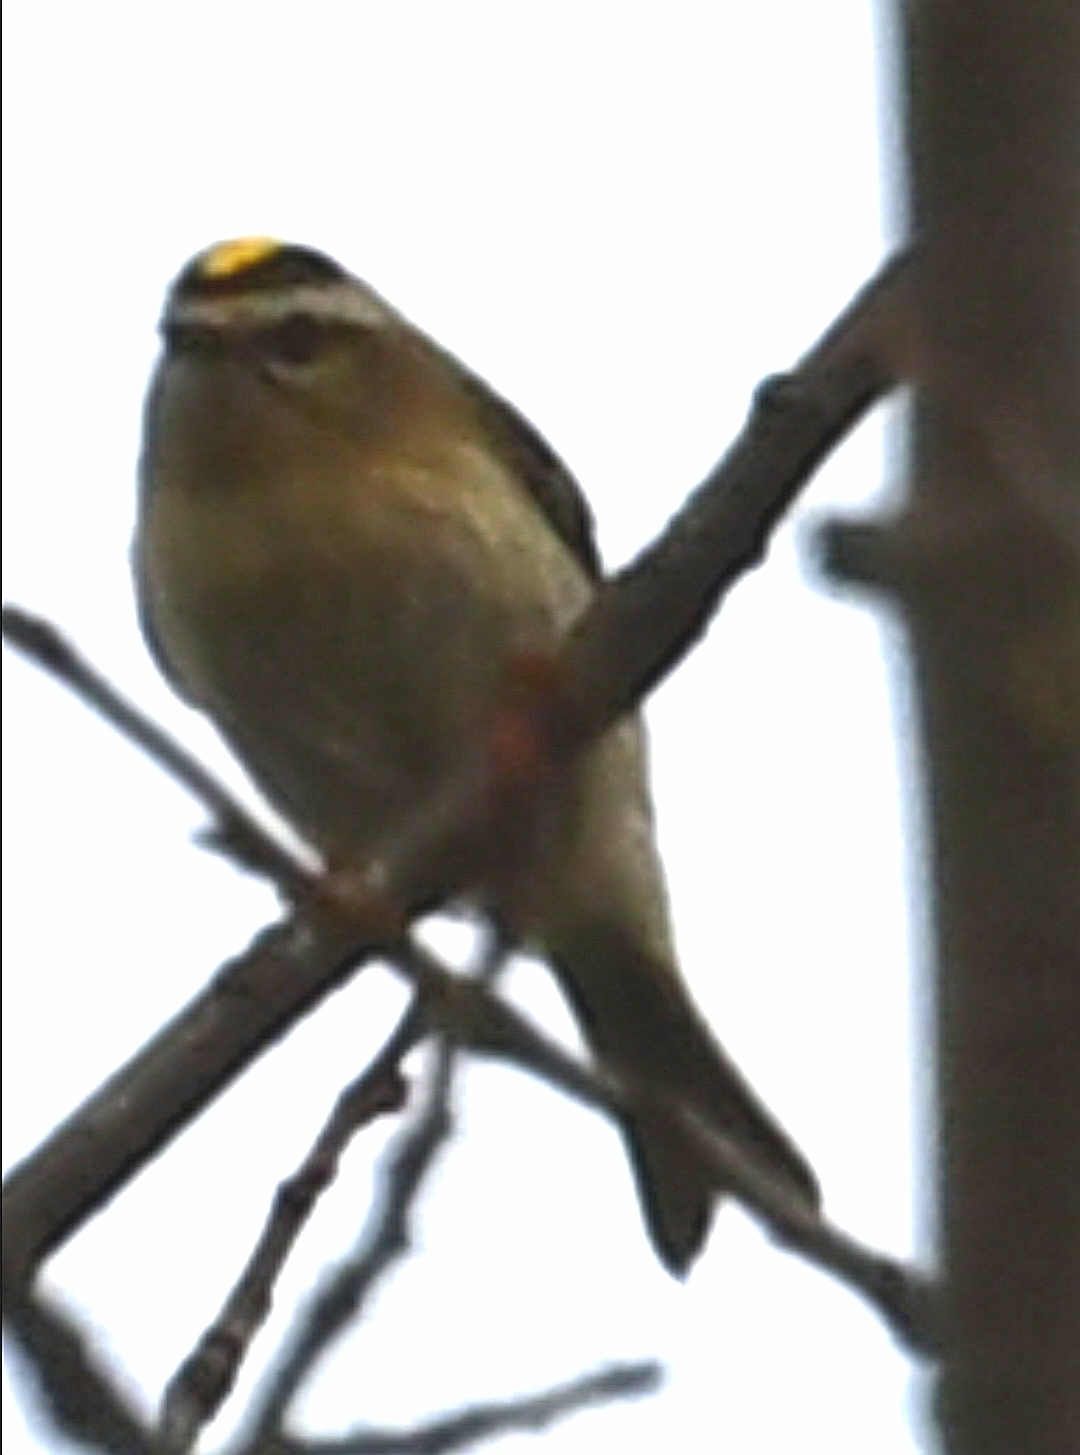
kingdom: Animalia
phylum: Chordata
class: Aves
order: Passeriformes
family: Regulidae
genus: Regulus
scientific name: Regulus satrapa
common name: Golden-crowned kinglet
